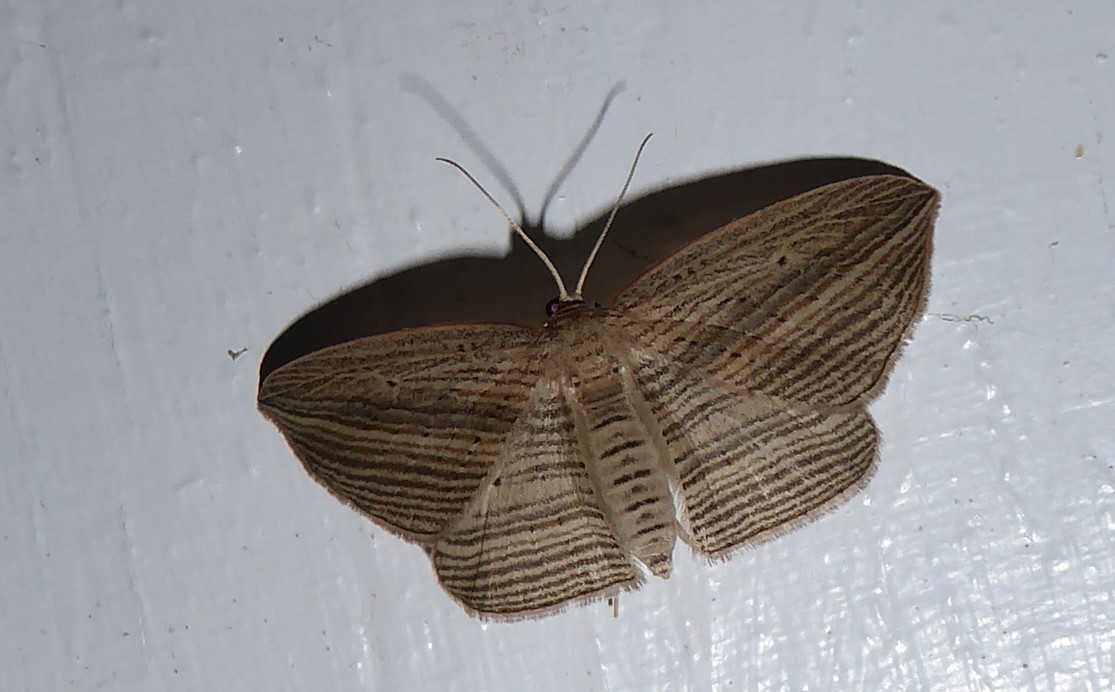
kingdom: Animalia
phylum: Arthropoda
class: Insecta
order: Lepidoptera
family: Geometridae
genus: Epiphryne
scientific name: Epiphryne verriculata
